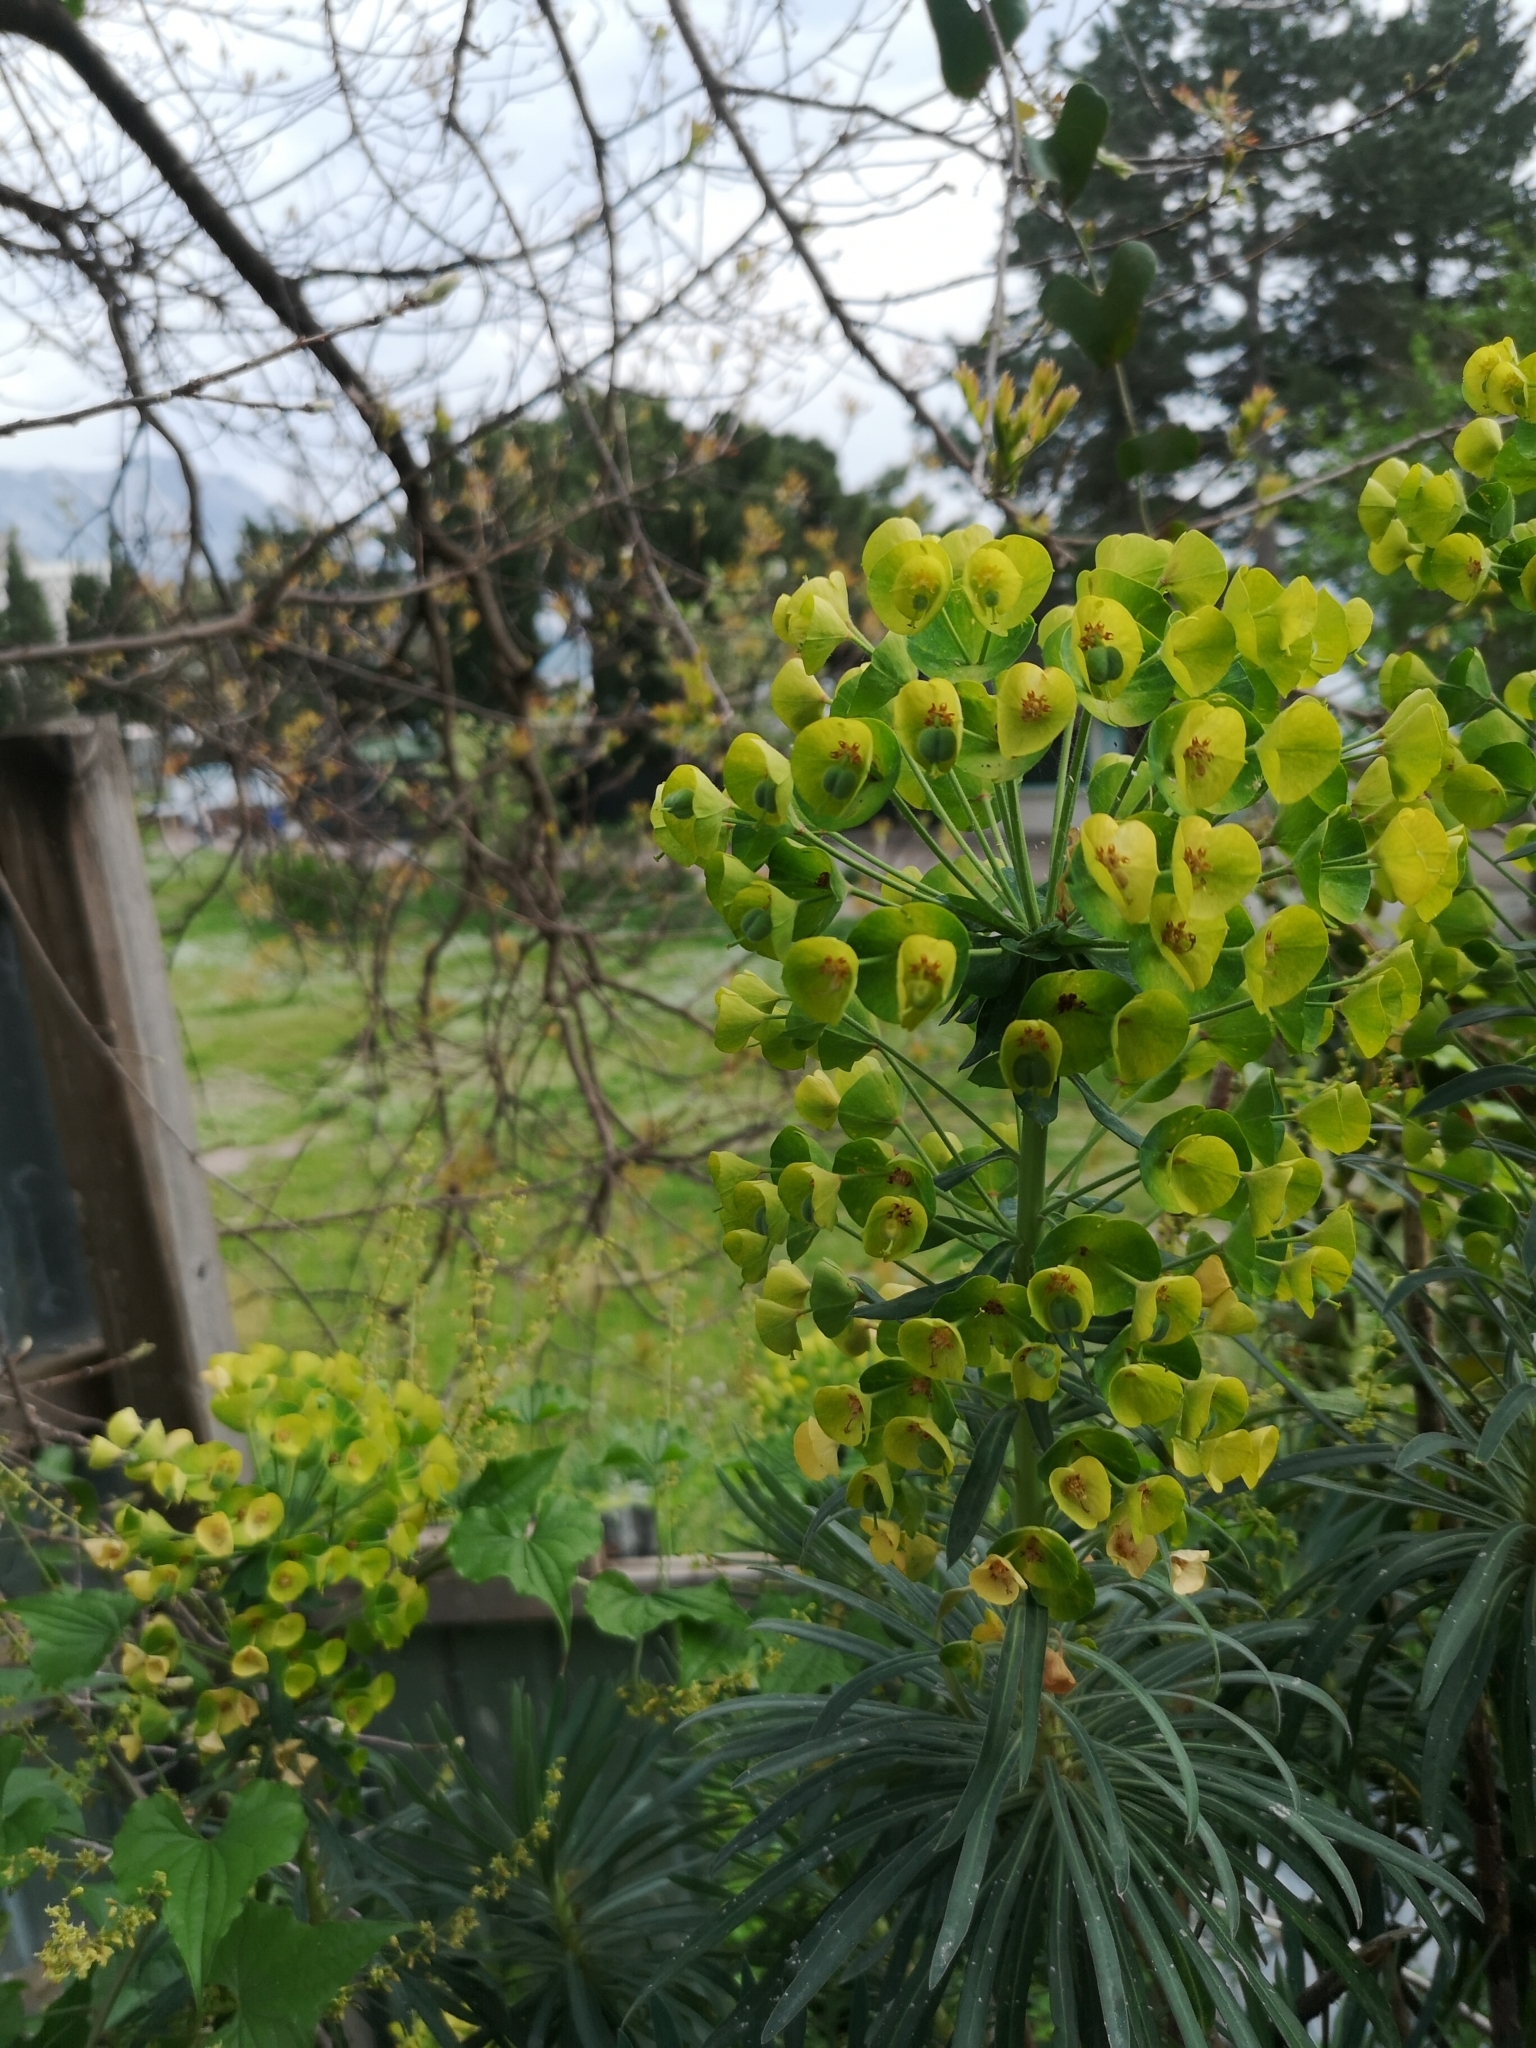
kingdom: Plantae
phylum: Tracheophyta
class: Magnoliopsida
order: Malpighiales
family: Euphorbiaceae
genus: Euphorbia
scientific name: Euphorbia characias
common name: Mediterranean spurge
